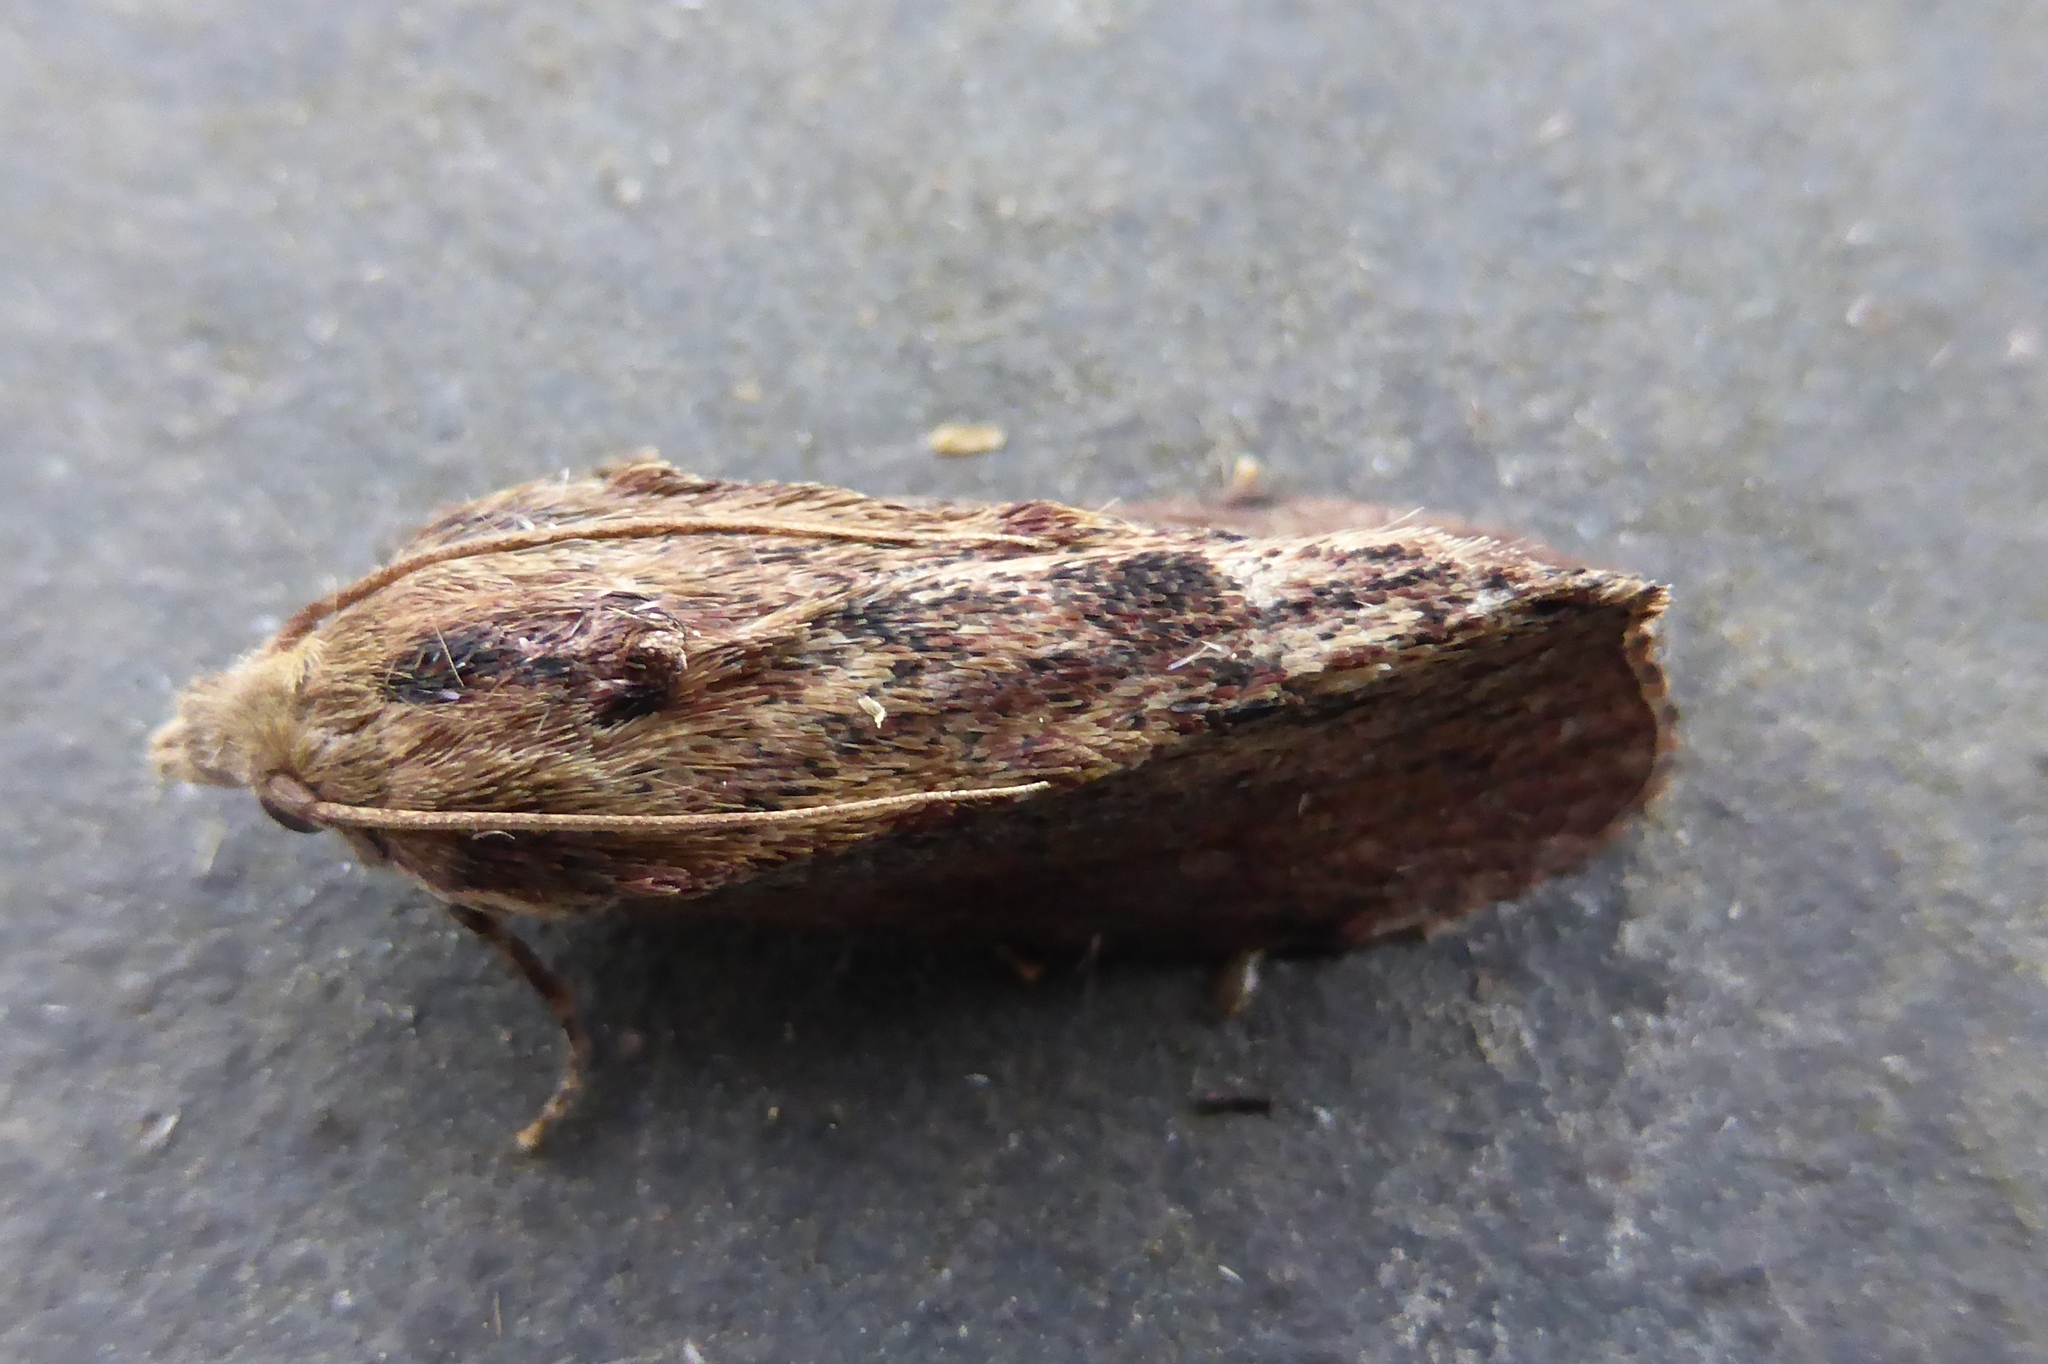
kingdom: Animalia
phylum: Arthropoda
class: Insecta
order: Lepidoptera
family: Pyralidae
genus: Galleria
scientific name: Galleria mellonella
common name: Greater wax moth
